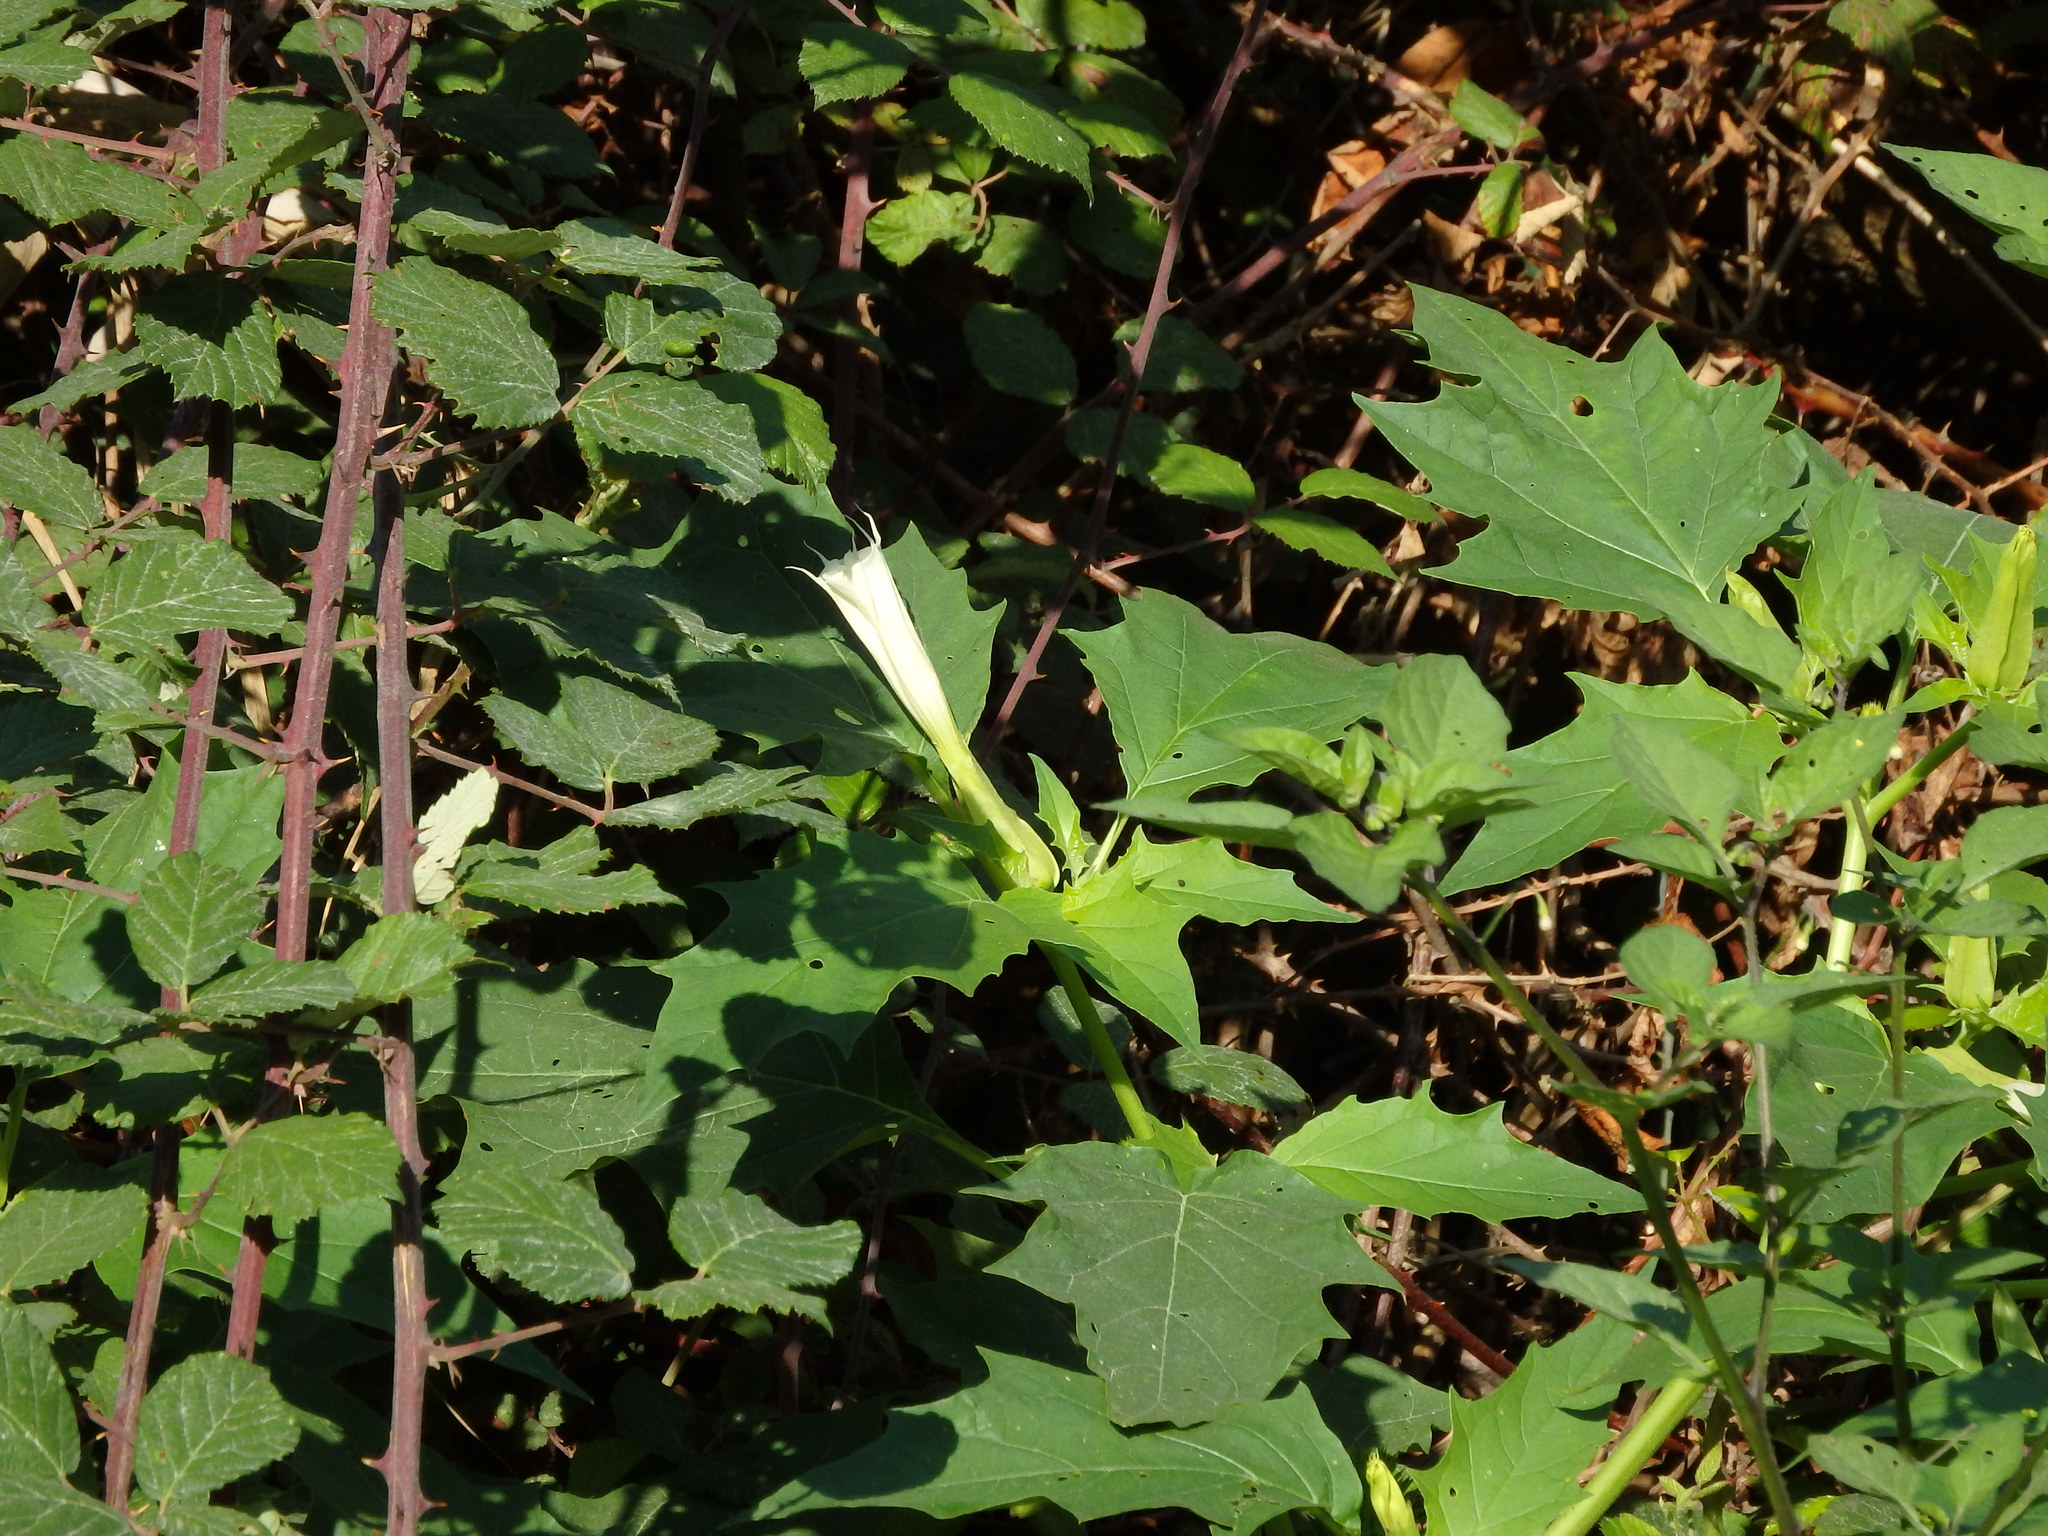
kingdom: Plantae
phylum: Tracheophyta
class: Magnoliopsida
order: Solanales
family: Solanaceae
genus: Datura
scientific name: Datura stramonium
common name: Thorn-apple
